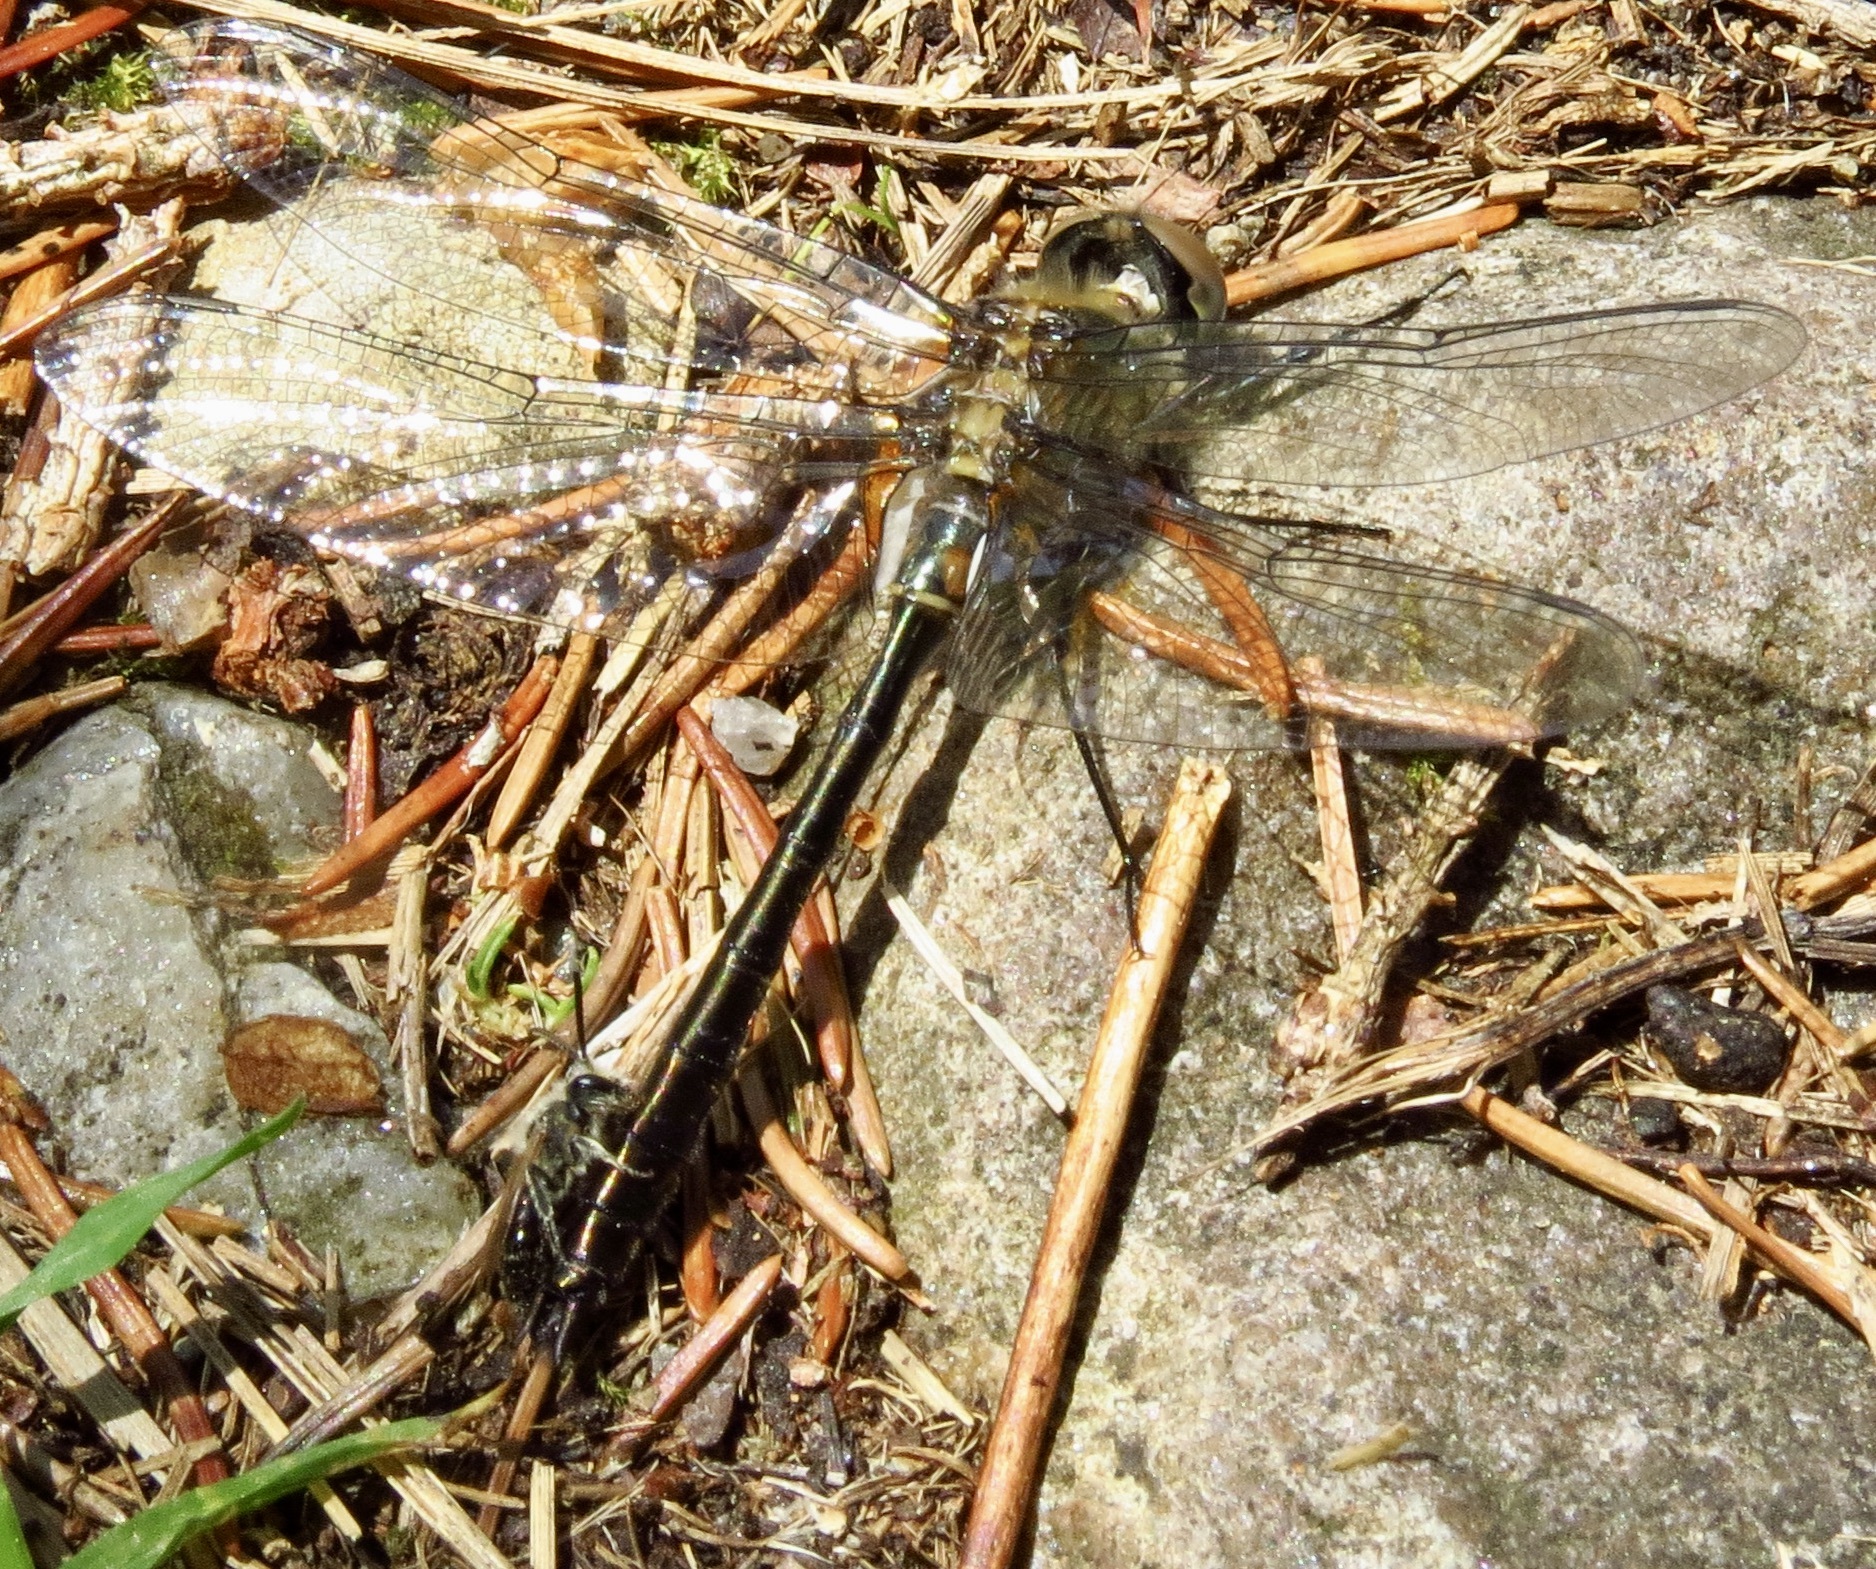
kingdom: Animalia
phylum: Arthropoda
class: Insecta
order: Odonata
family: Corduliidae
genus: Cordulia
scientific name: Cordulia shurtleffii
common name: American emerald
